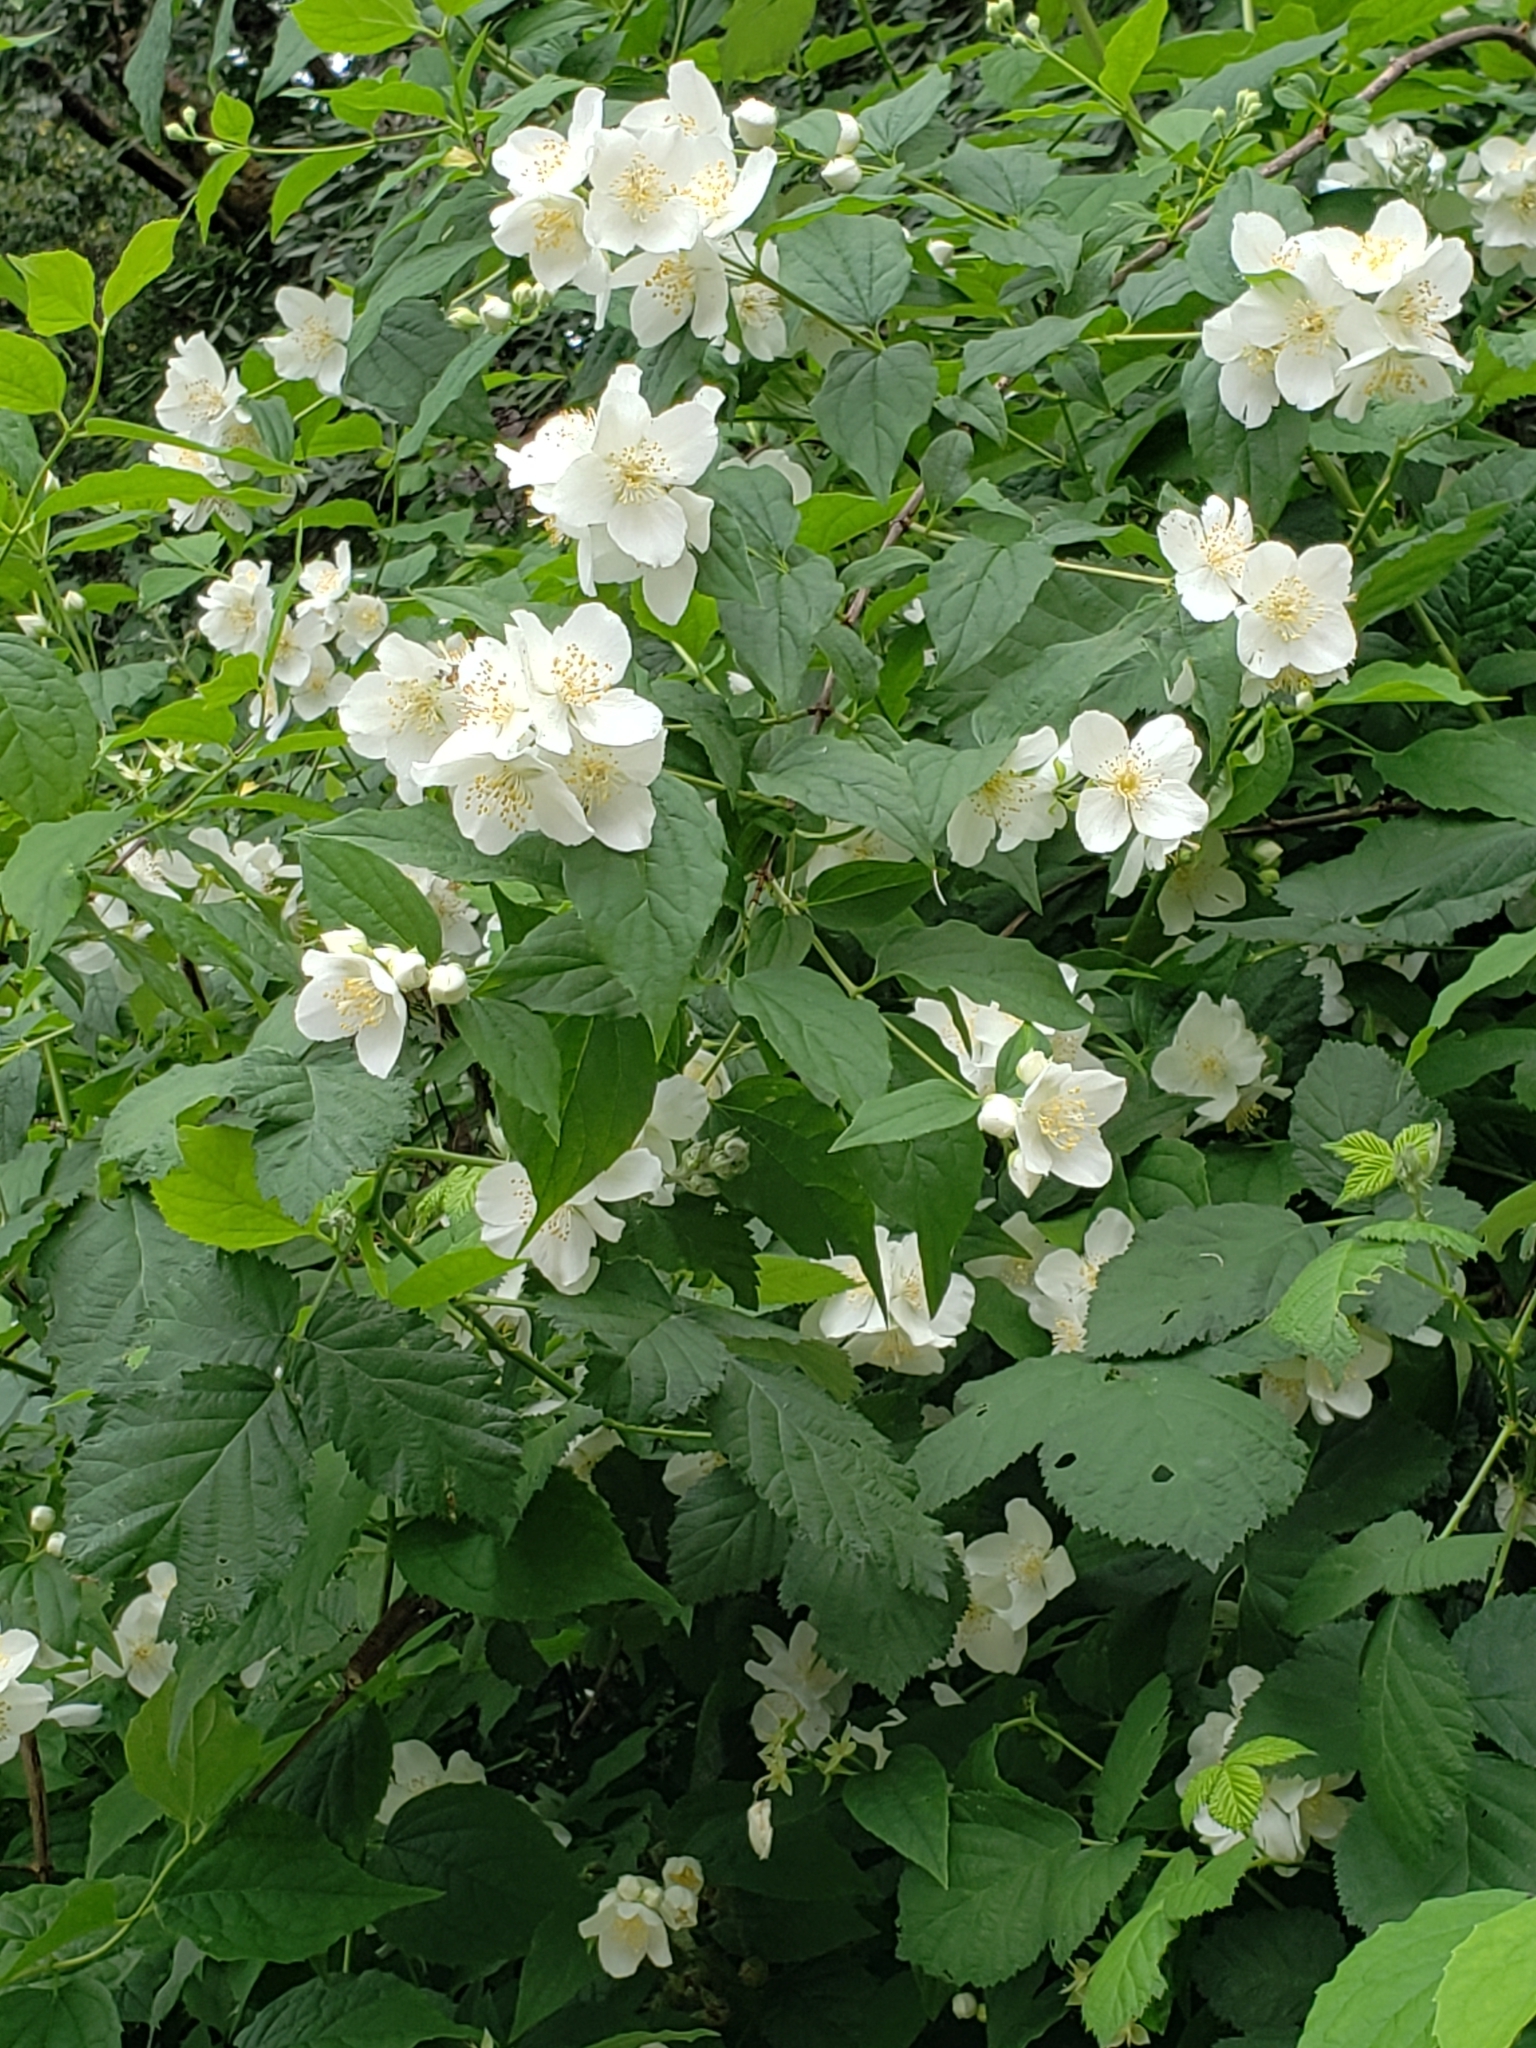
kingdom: Plantae
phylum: Tracheophyta
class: Magnoliopsida
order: Cornales
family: Hydrangeaceae
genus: Philadelphus
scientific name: Philadelphus lewisii
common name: Lewis's mock orange
